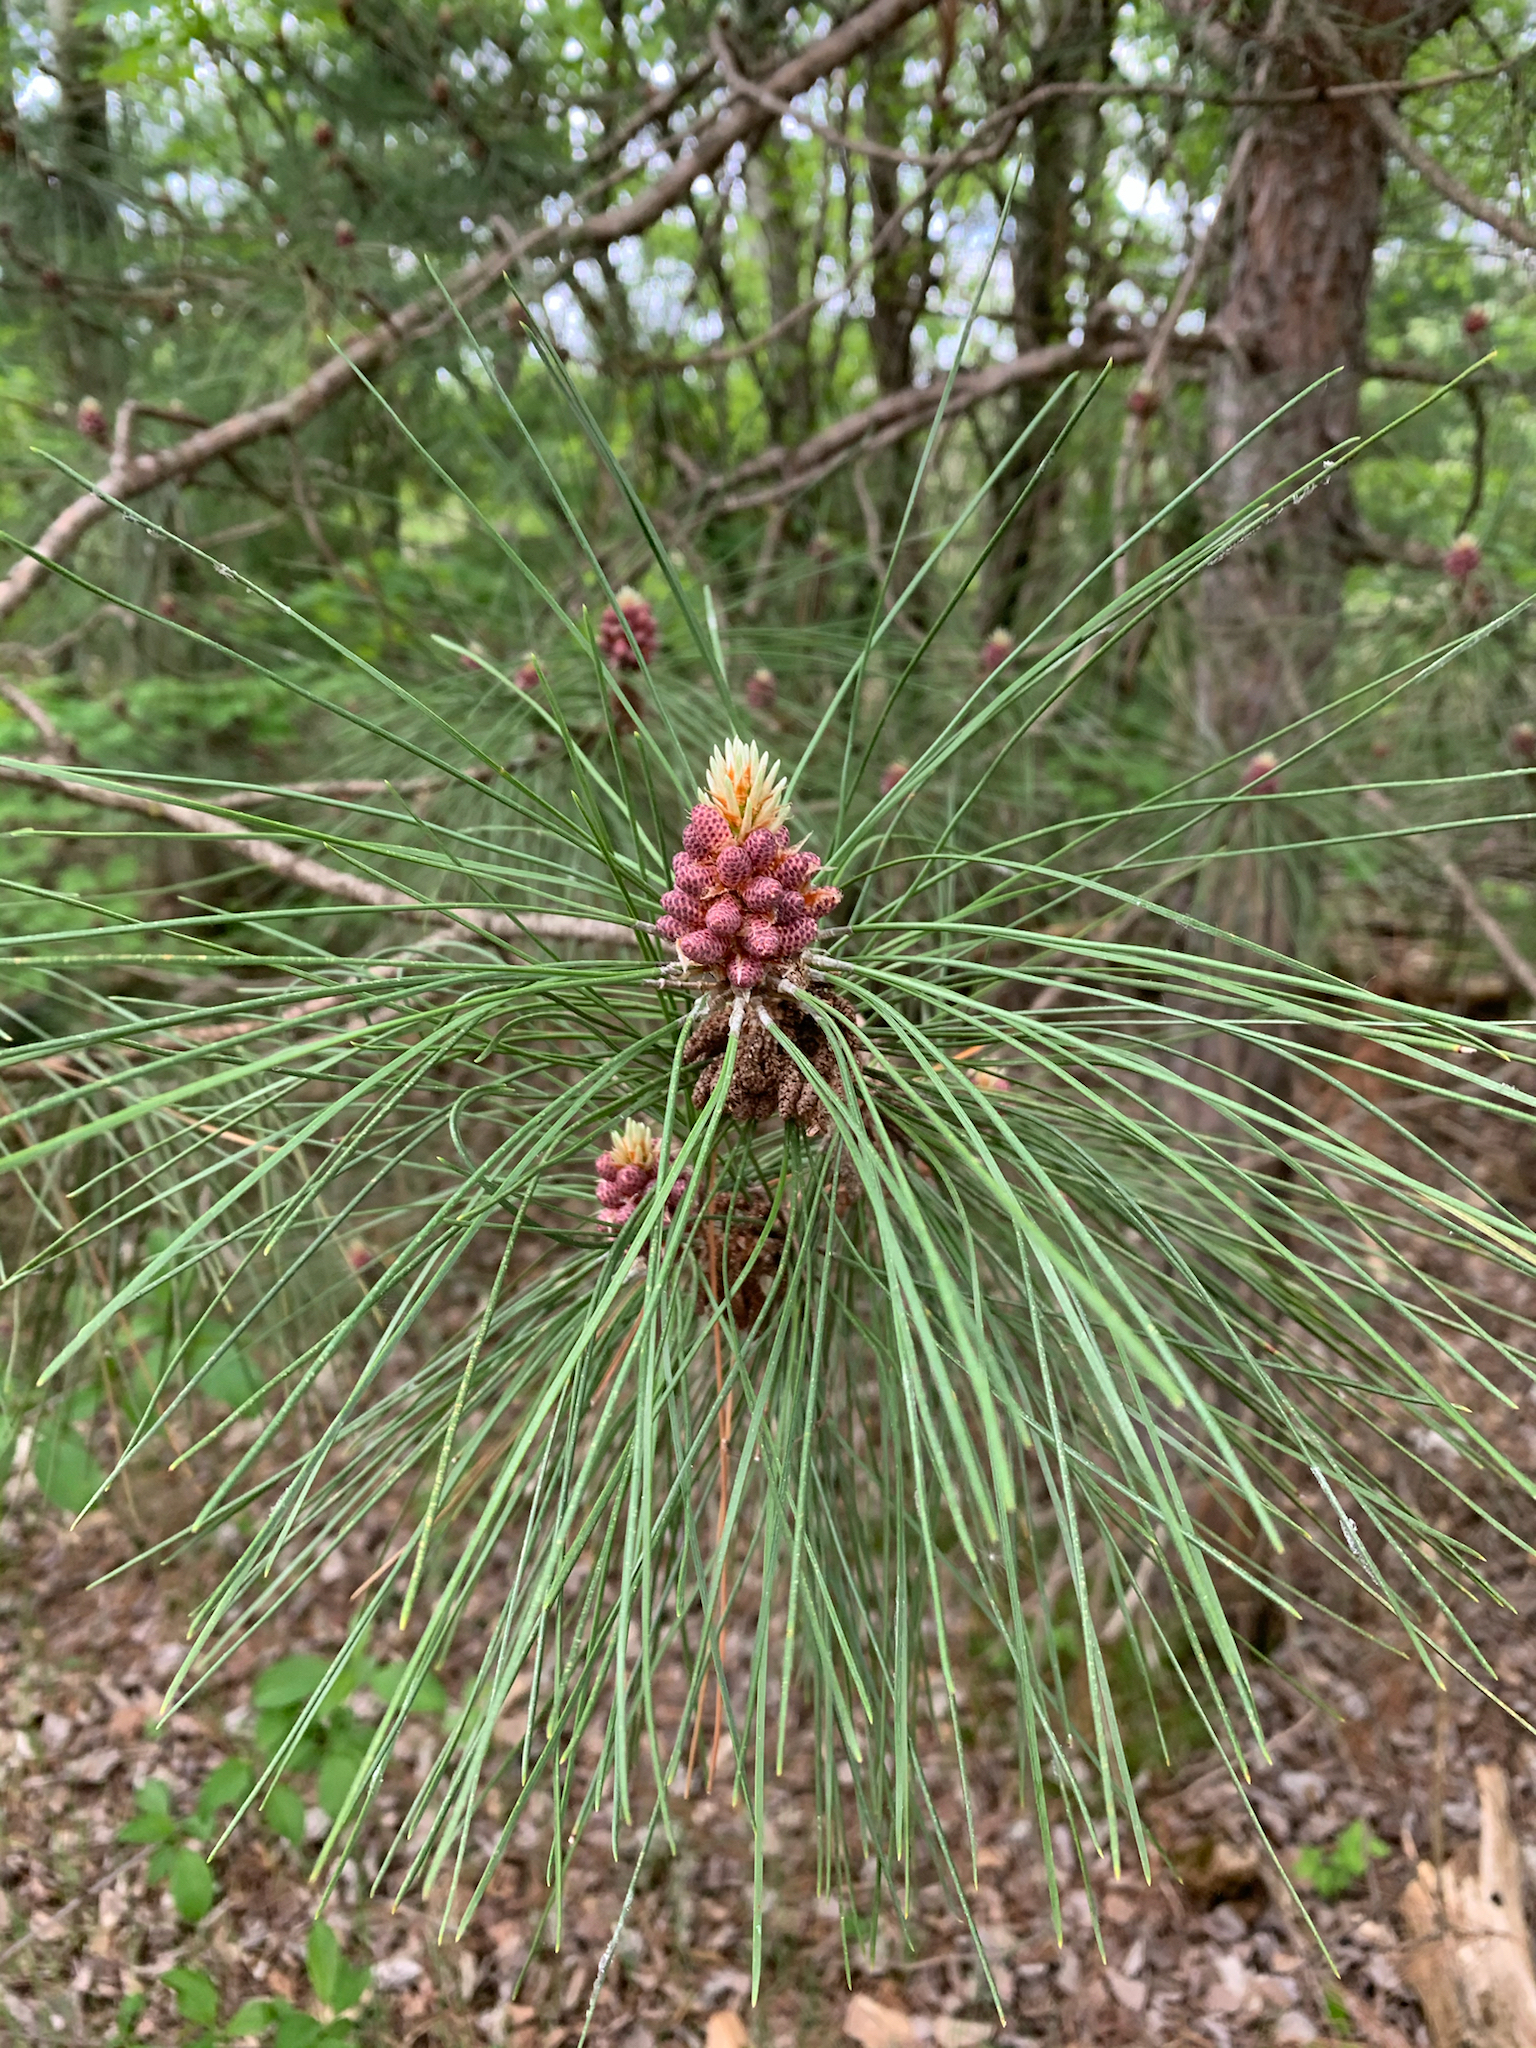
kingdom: Plantae
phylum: Tracheophyta
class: Pinopsida
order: Pinales
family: Pinaceae
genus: Pinus
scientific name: Pinus resinosa
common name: Norway pine
